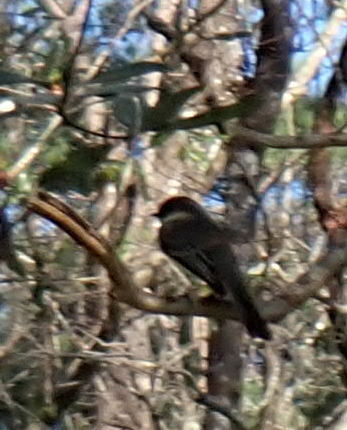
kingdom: Animalia
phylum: Chordata
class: Aves
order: Passeriformes
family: Tyrannidae
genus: Sayornis
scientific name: Sayornis phoebe
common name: Eastern phoebe
